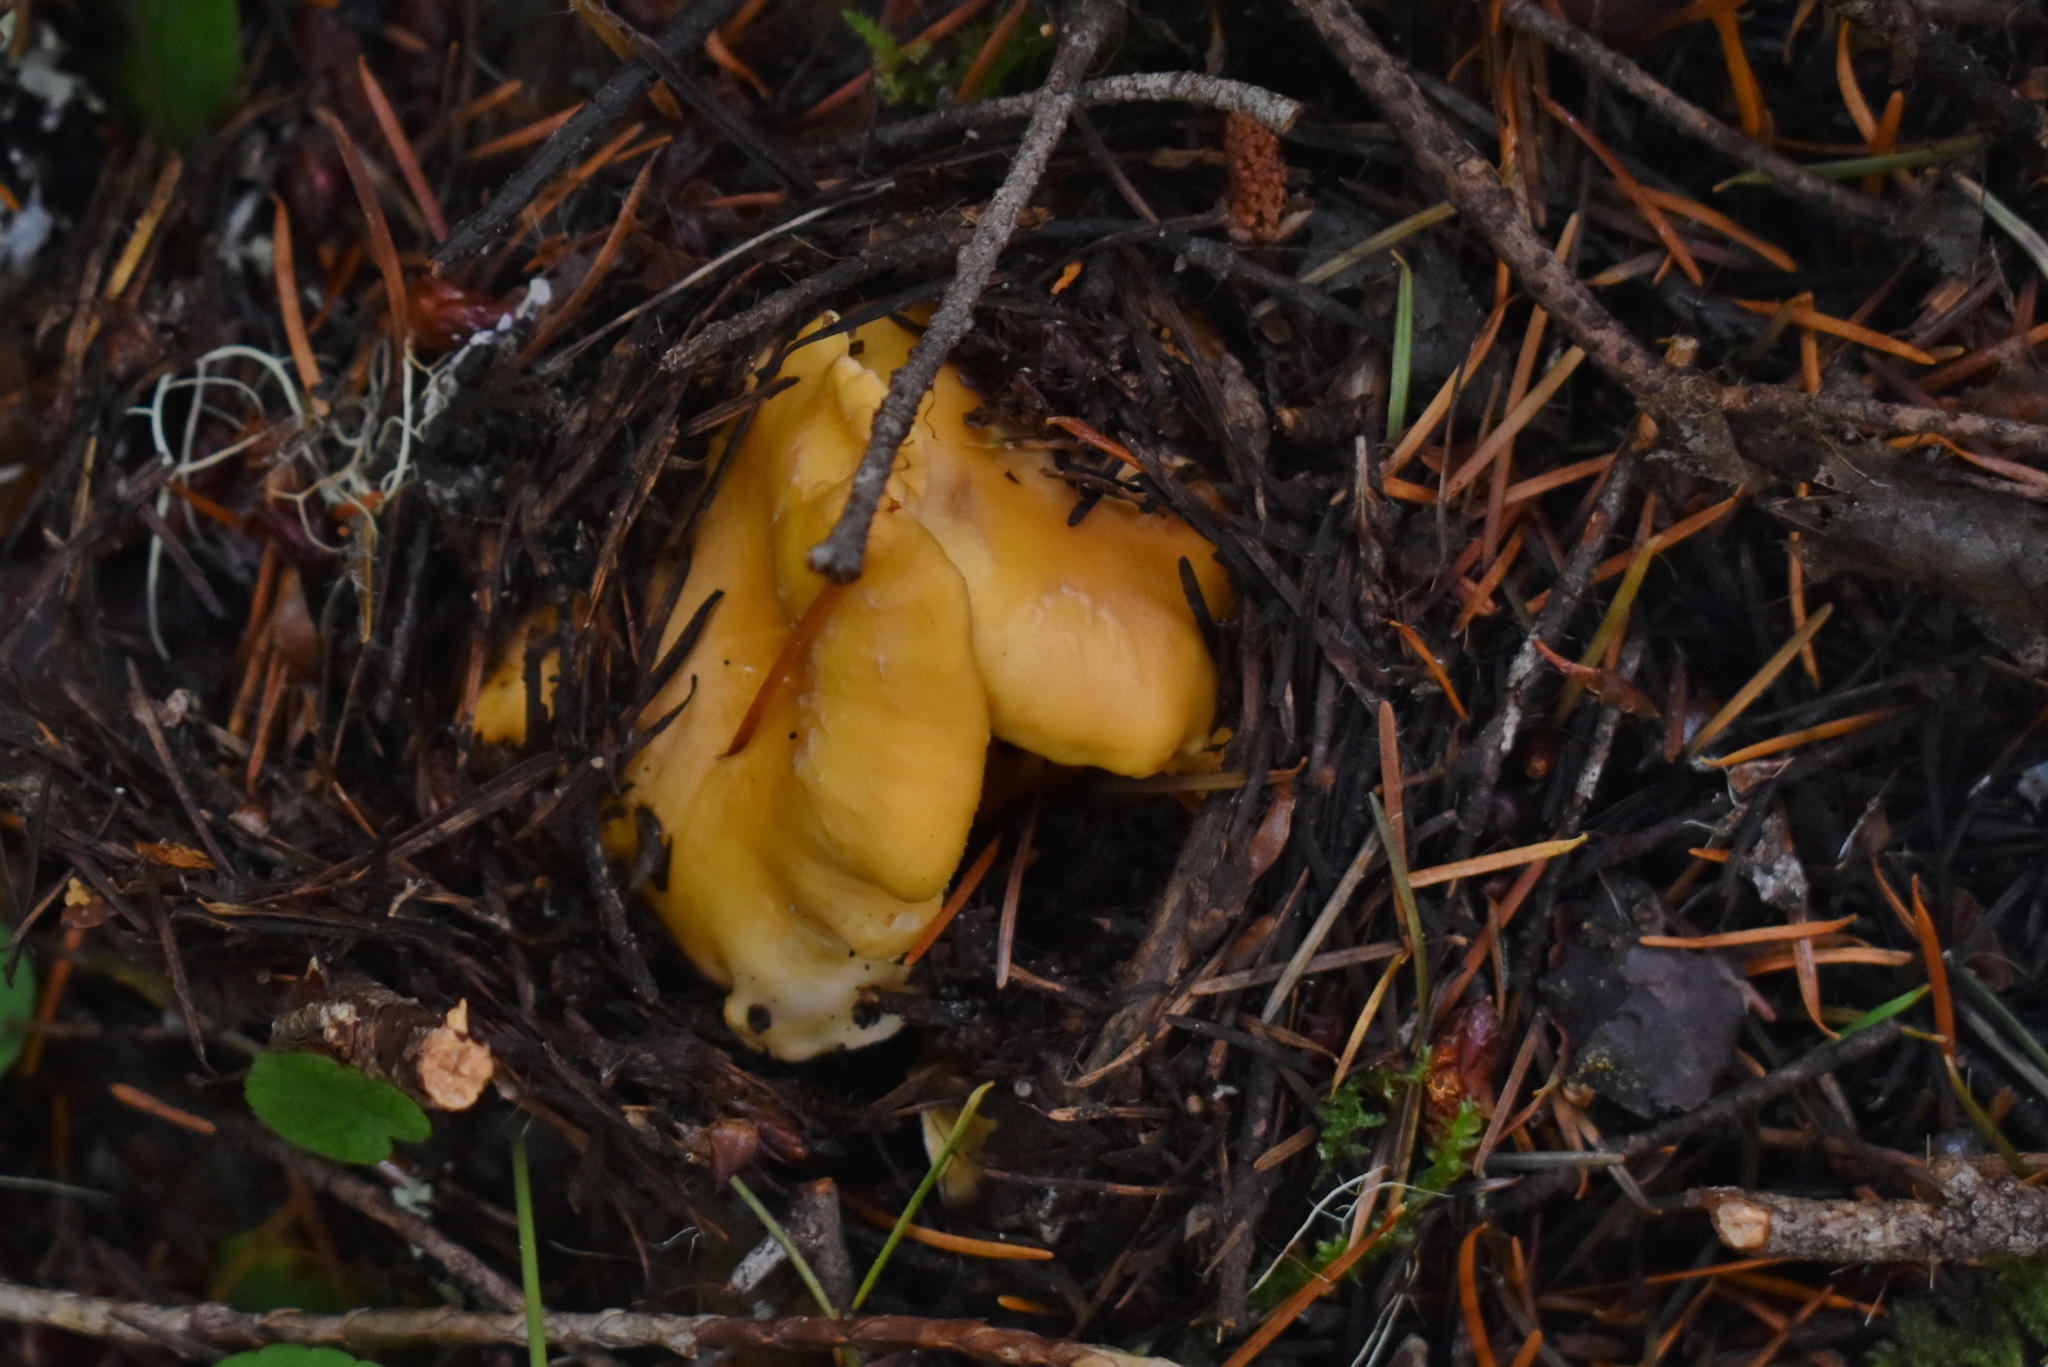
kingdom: Fungi
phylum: Basidiomycota
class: Agaricomycetes
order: Cantharellales
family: Hydnaceae
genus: Cantharellus
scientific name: Cantharellus formosus
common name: Pacific golden chanterelle
